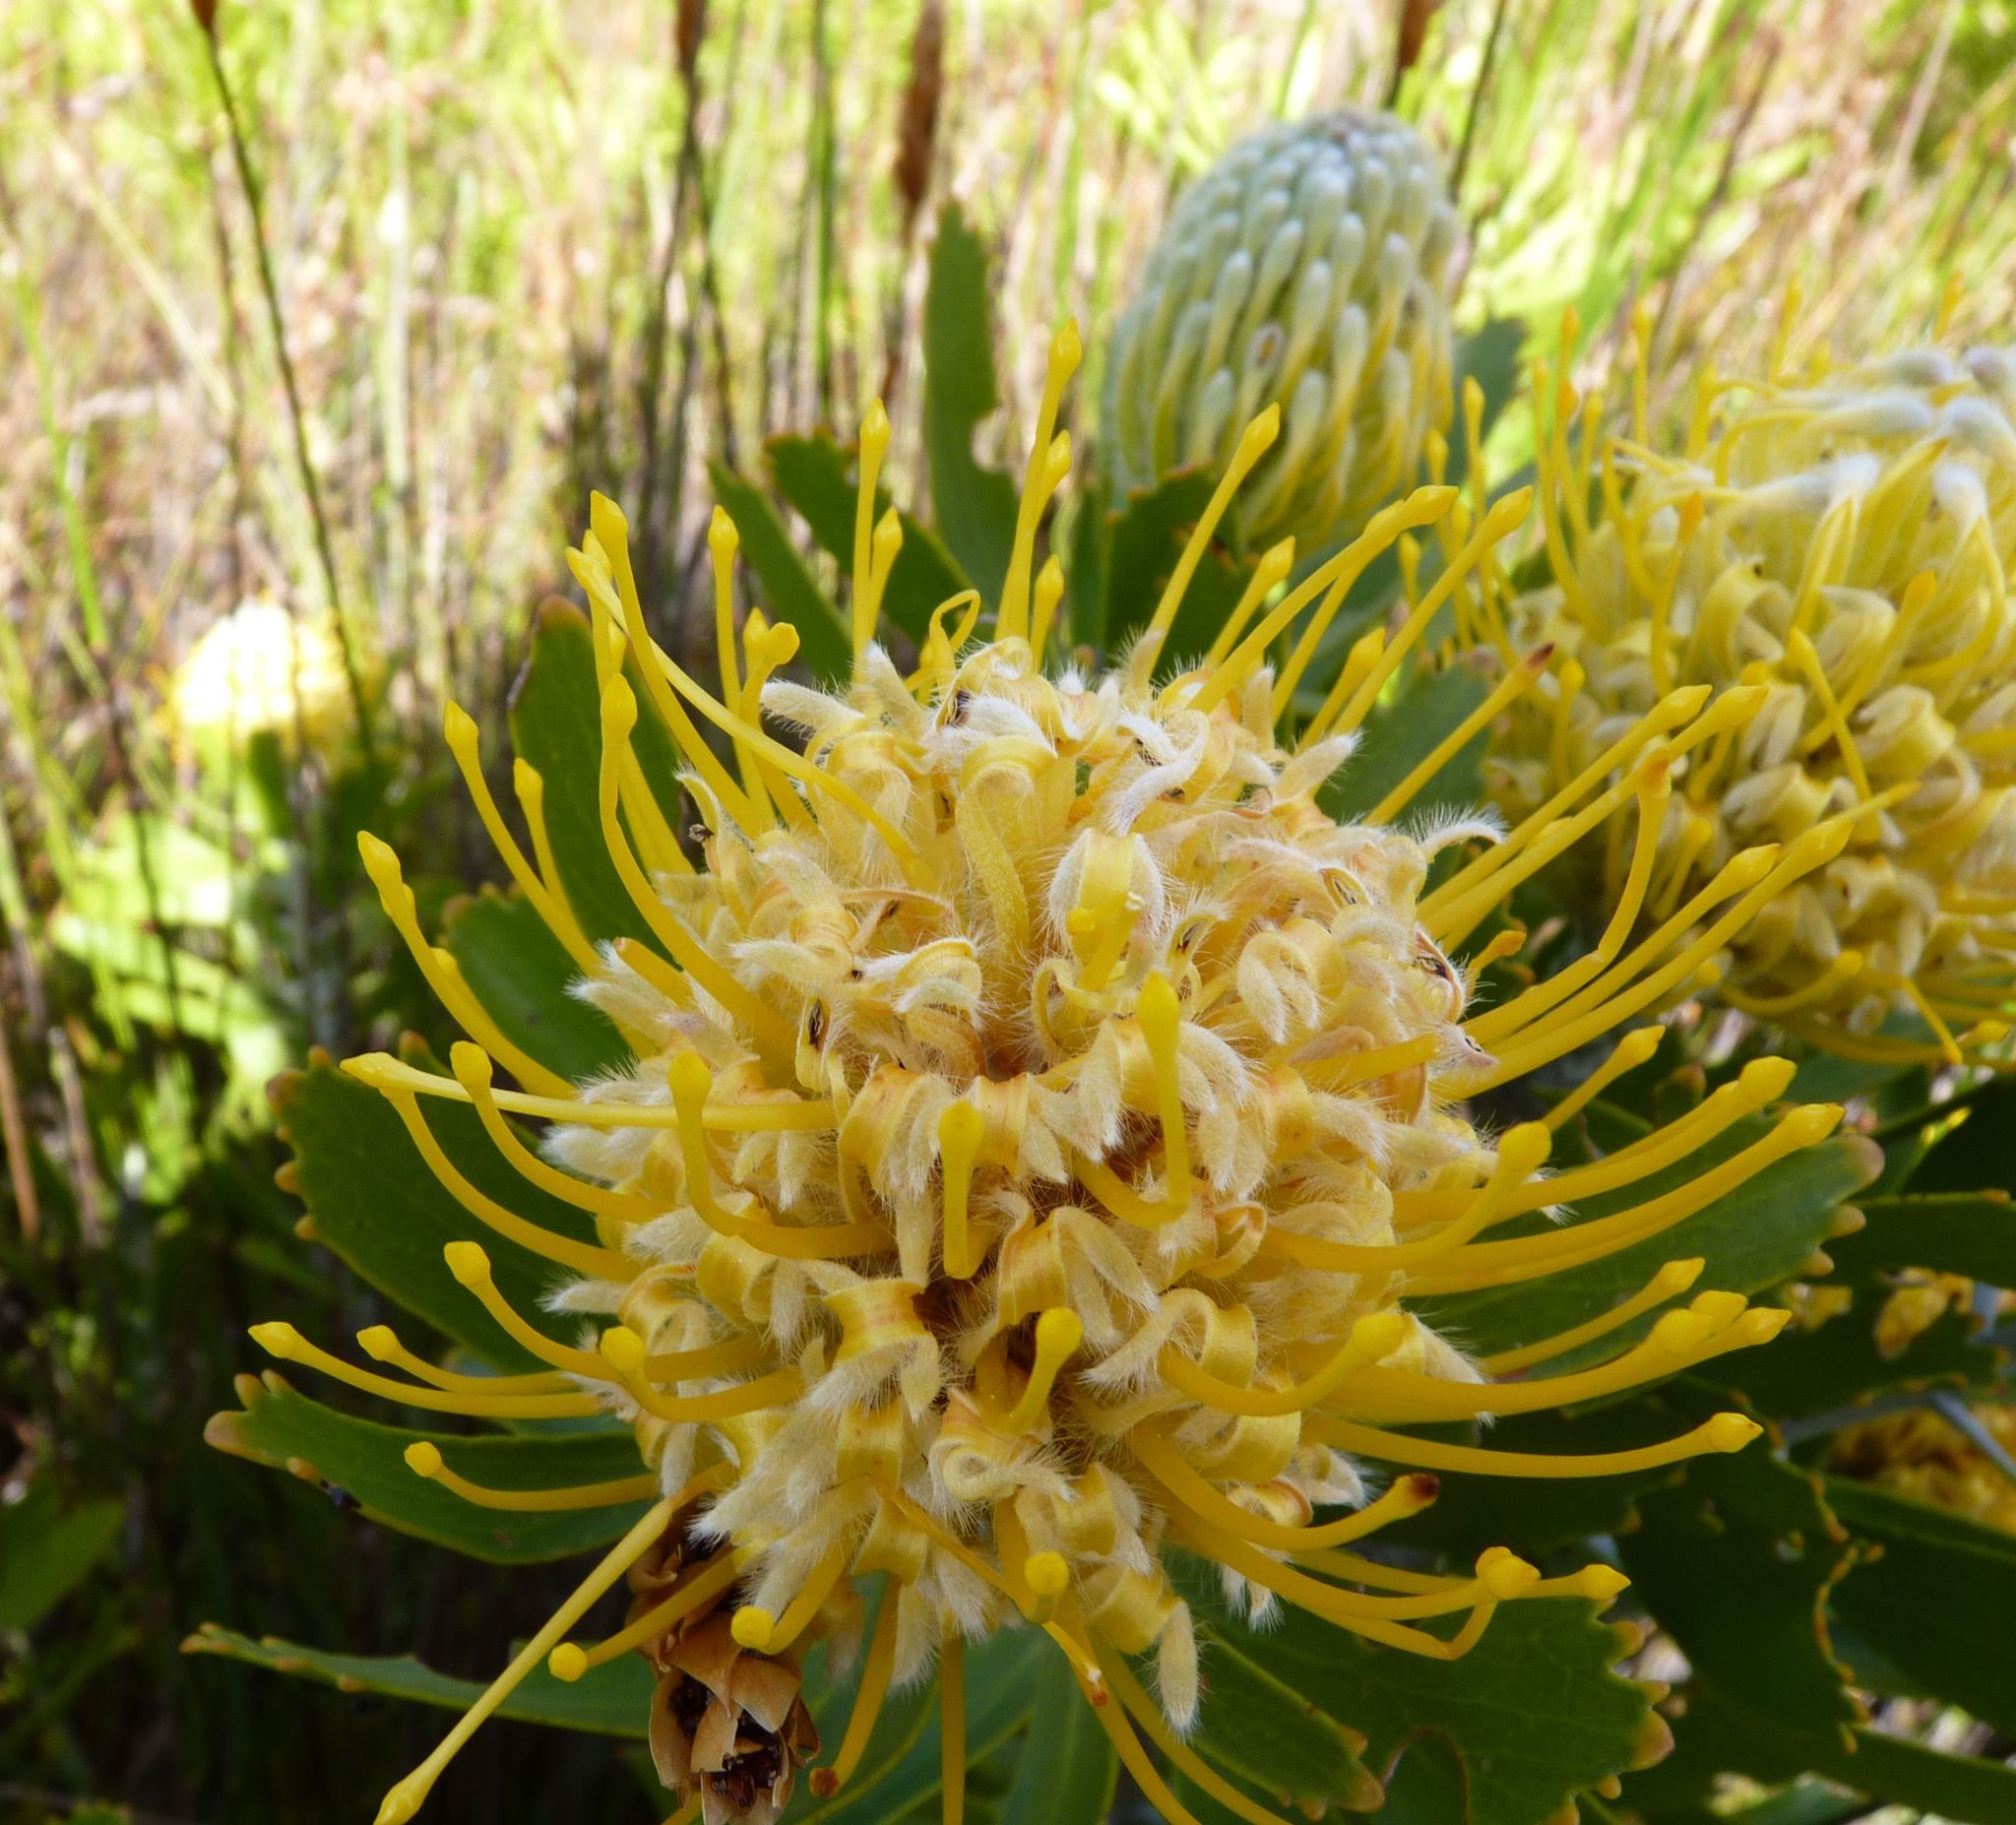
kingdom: Plantae
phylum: Tracheophyta
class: Magnoliopsida
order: Proteales
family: Proteaceae
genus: Leucospermum
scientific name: Leucospermum cuneiforme
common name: Common pincushion
